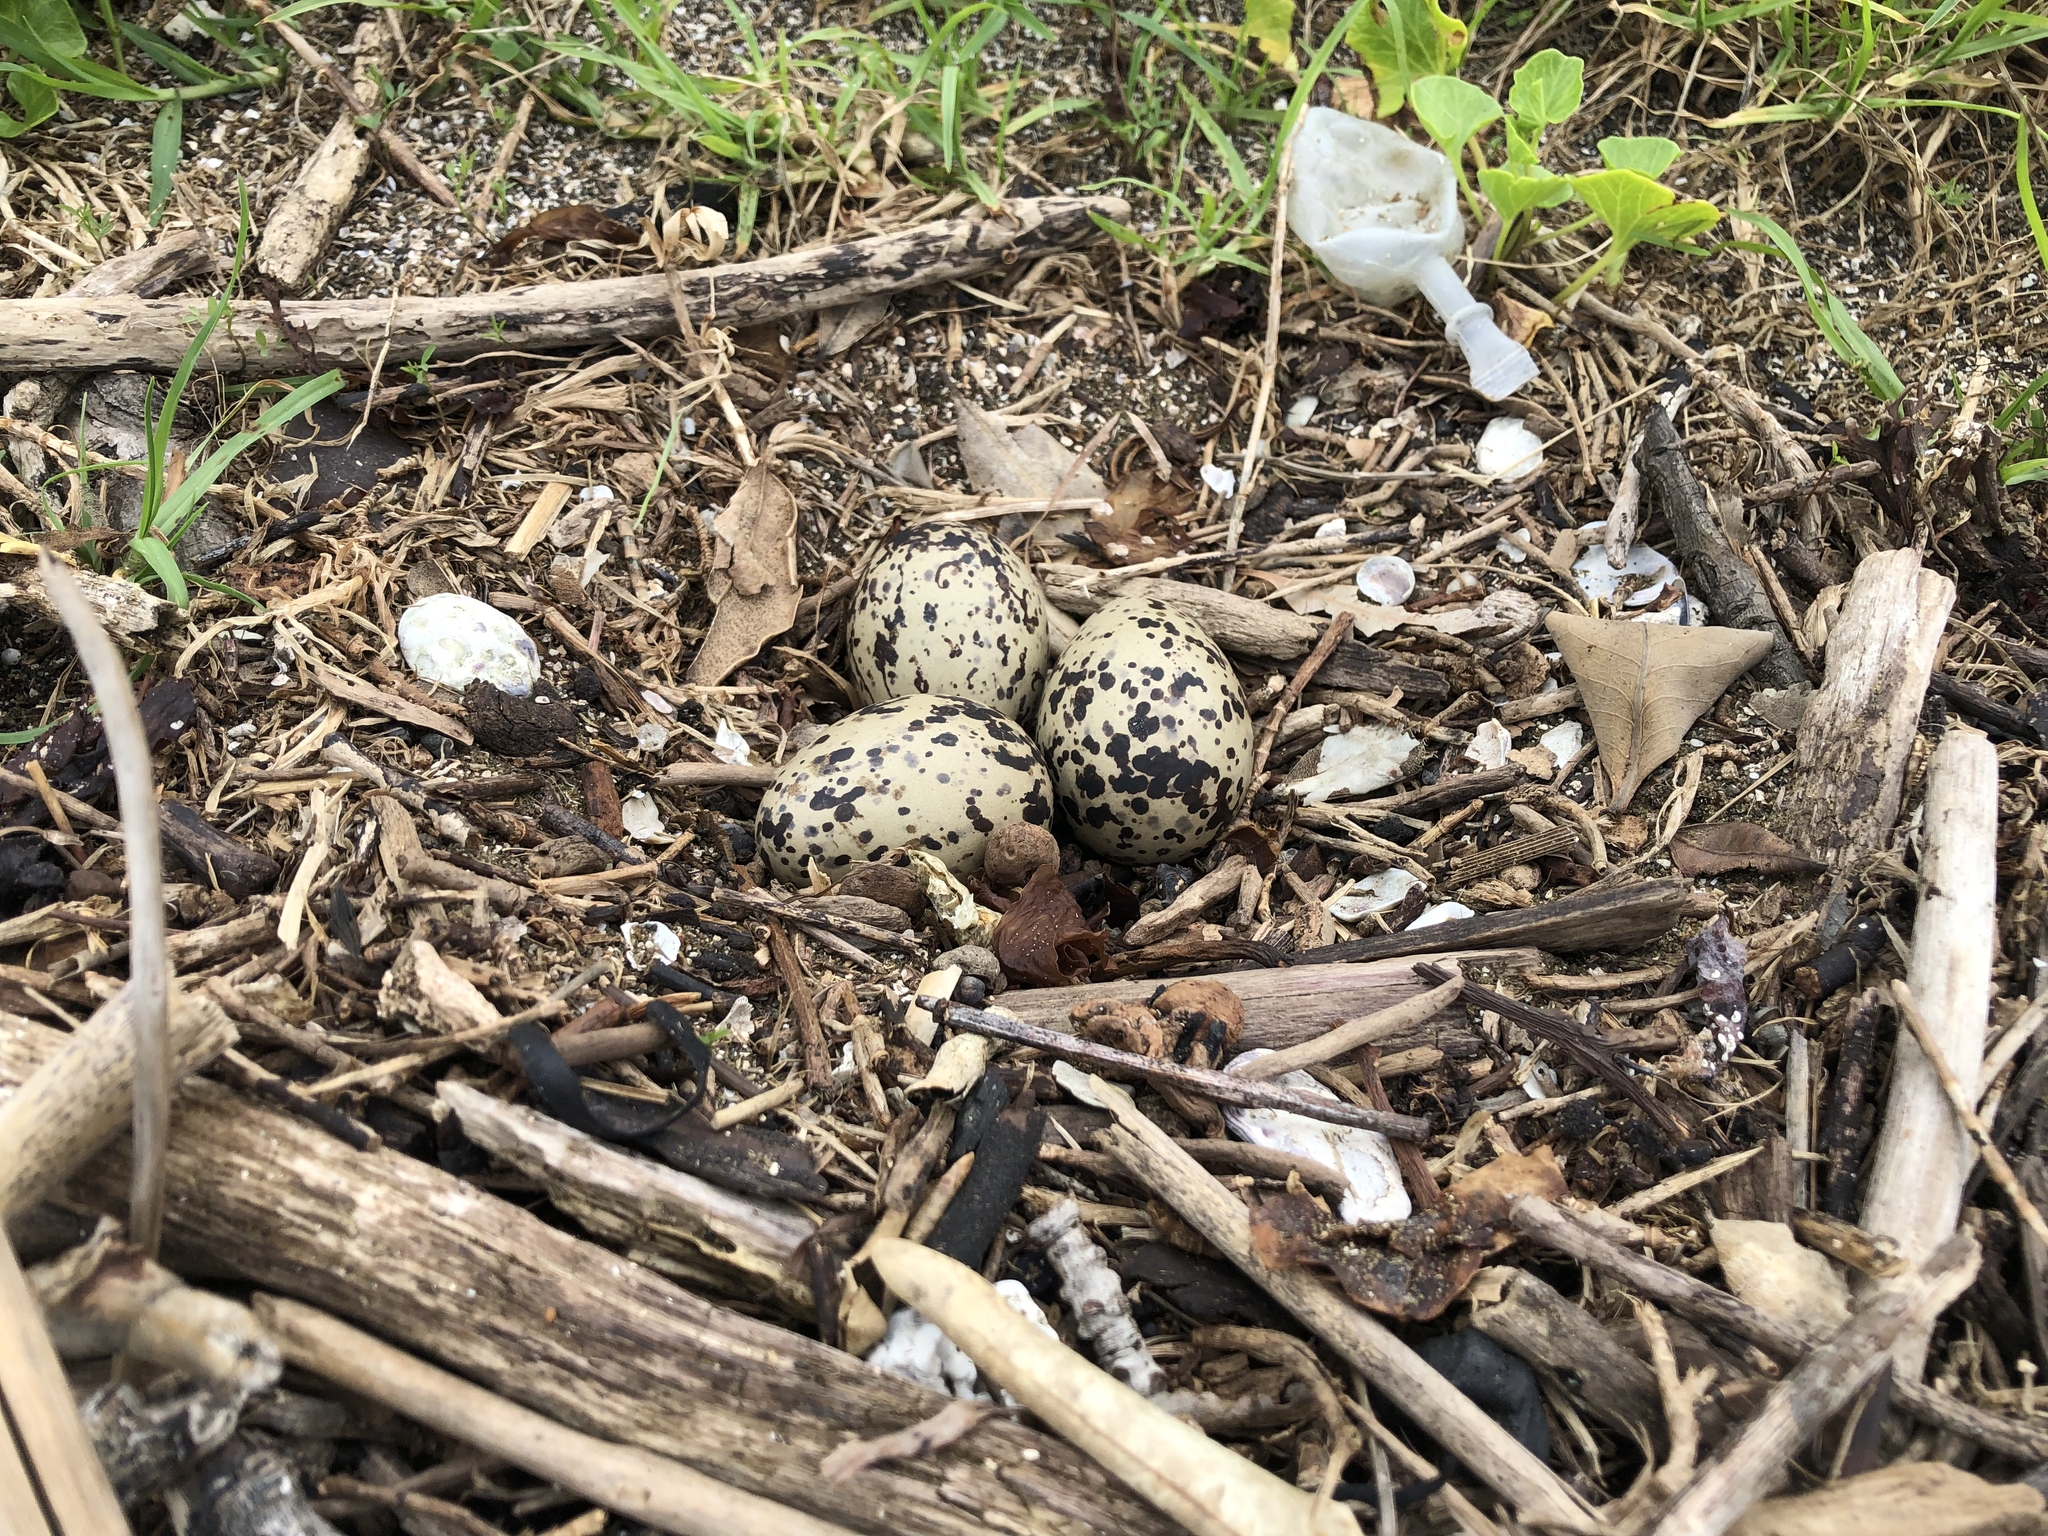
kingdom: Animalia
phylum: Chordata
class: Aves
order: Charadriiformes
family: Haematopodidae
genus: Haematopus
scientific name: Haematopus unicolor
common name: Variable oystercatcher
